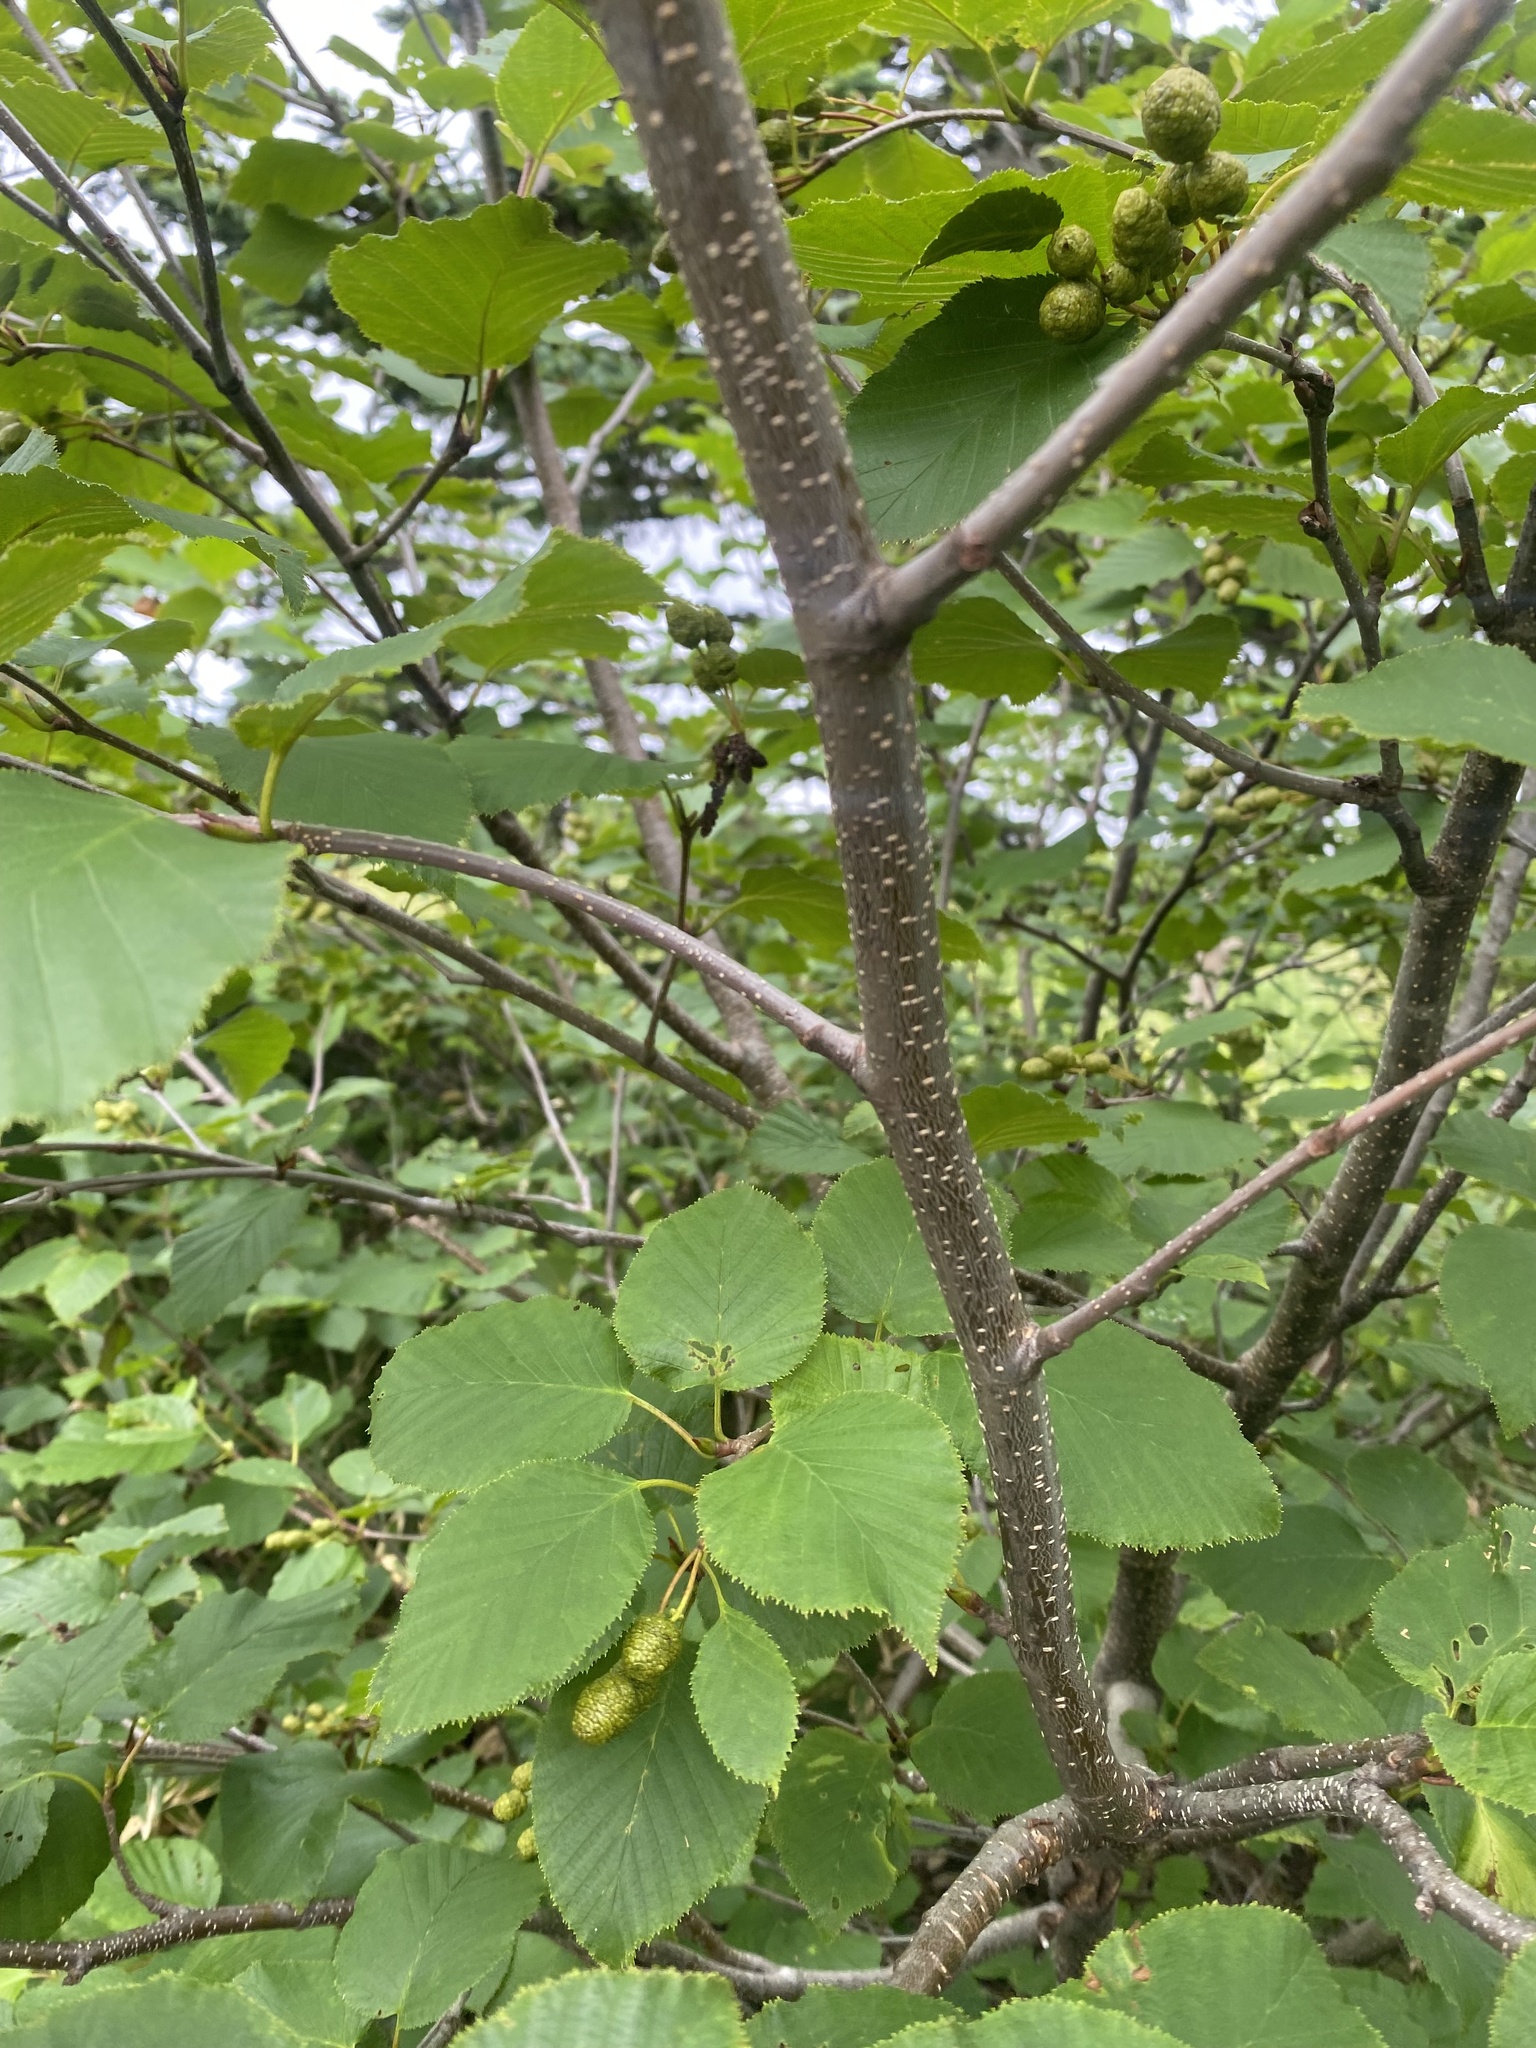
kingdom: Plantae
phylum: Tracheophyta
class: Magnoliopsida
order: Fagales
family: Betulaceae
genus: Alnus
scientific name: Alnus maximowiczii
